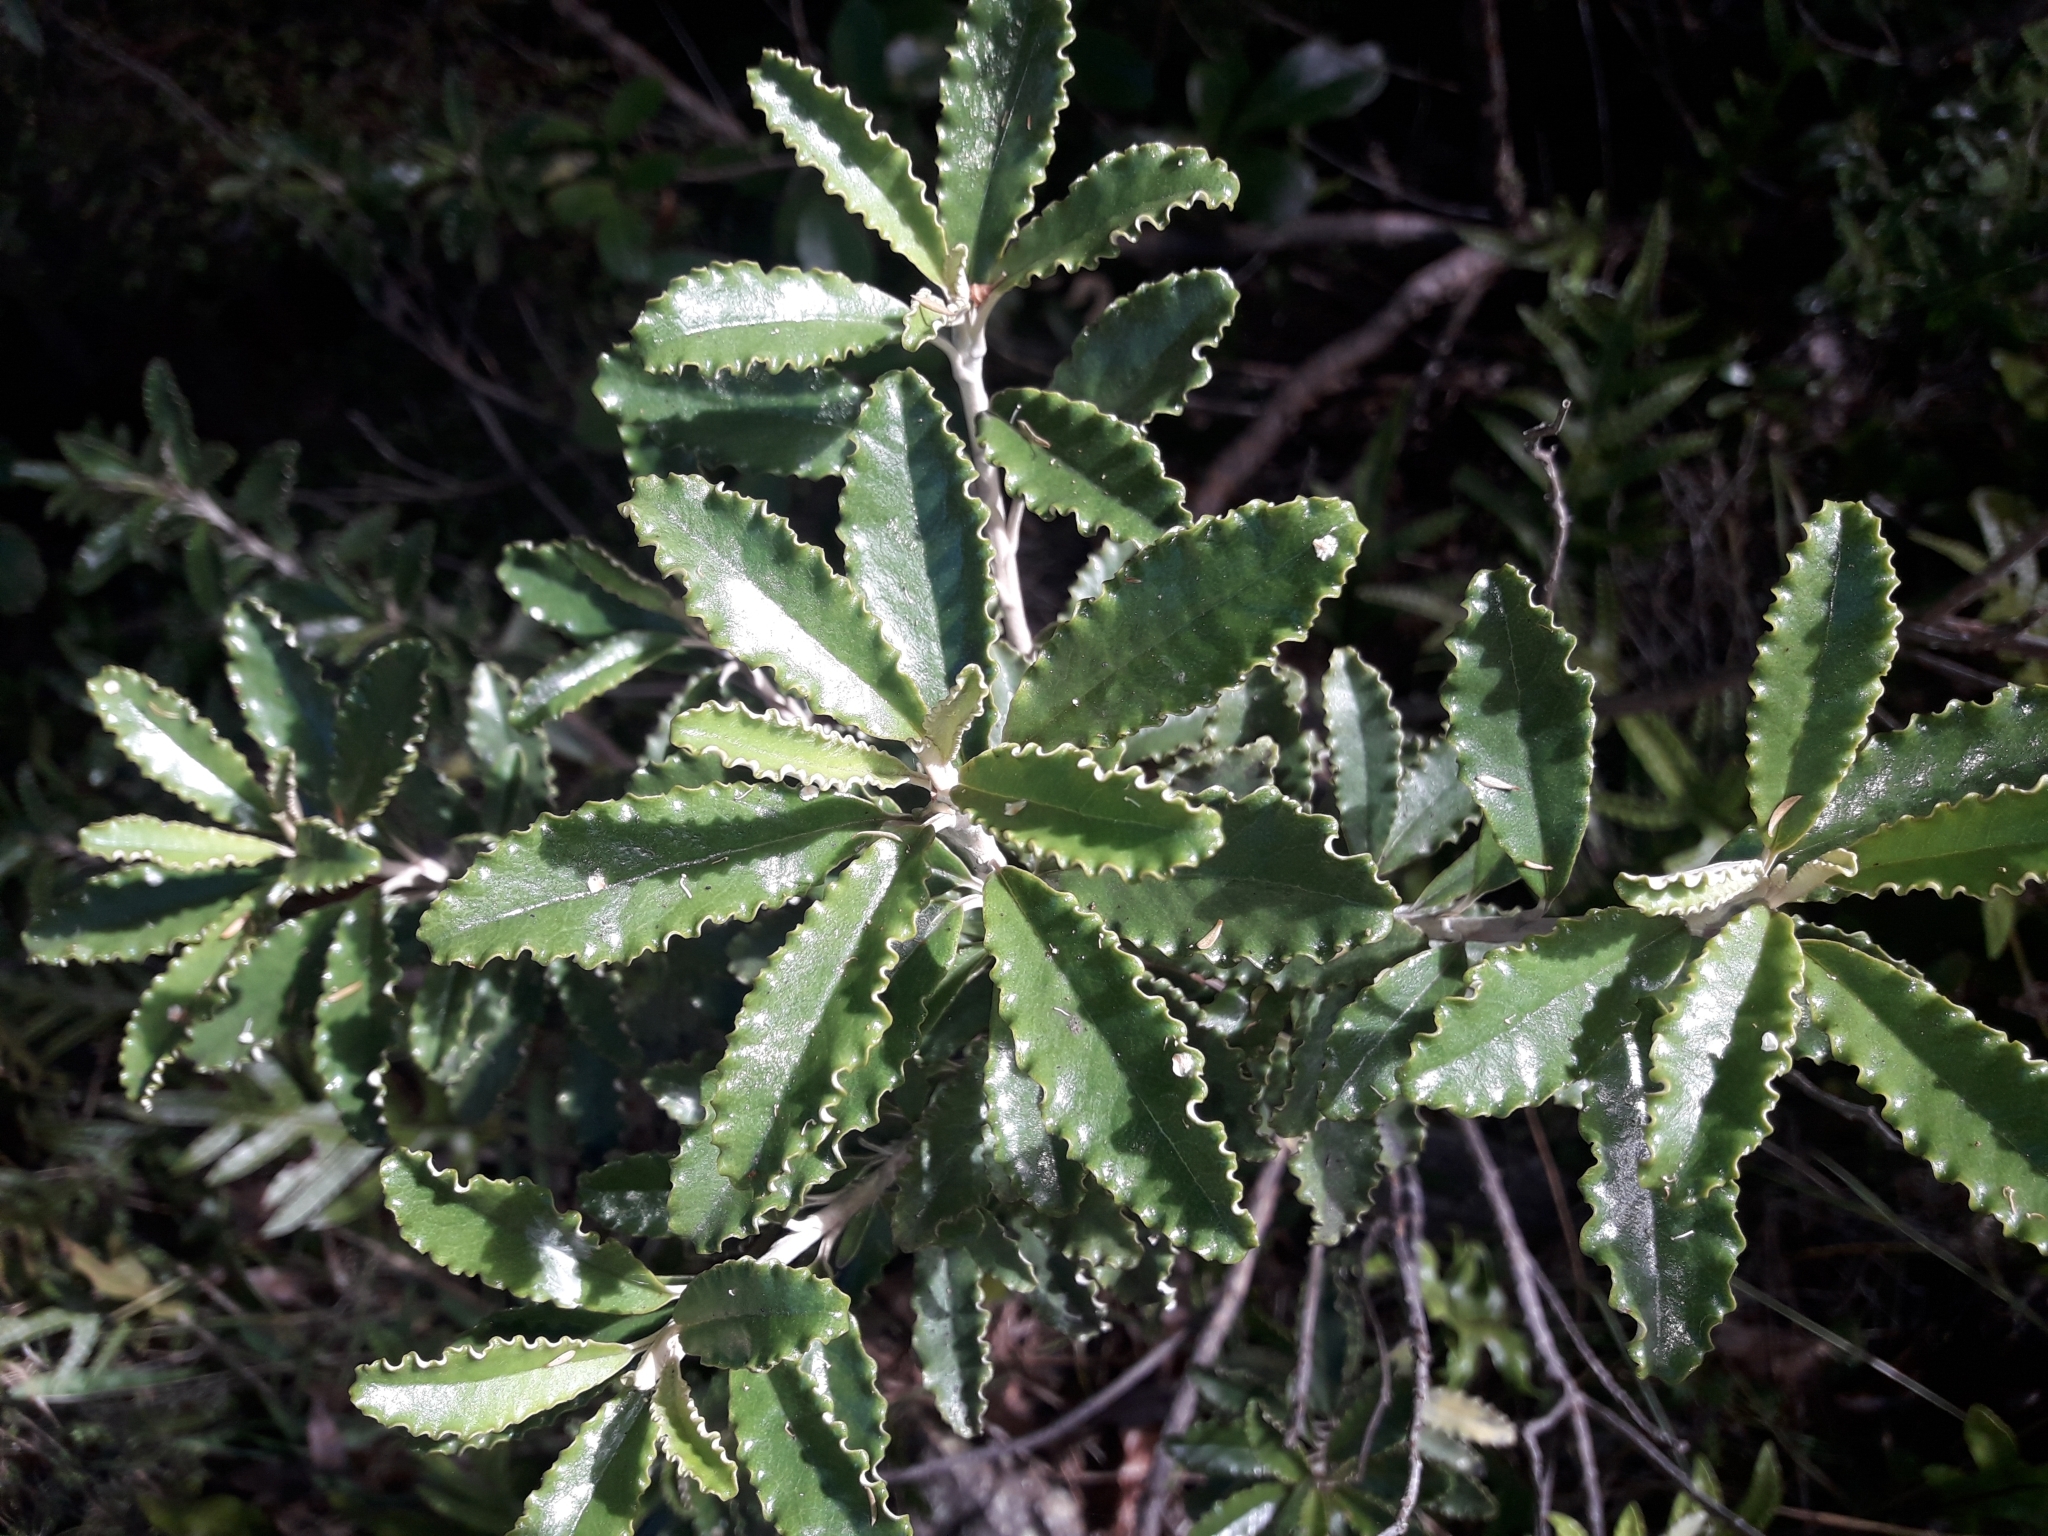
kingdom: Plantae
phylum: Tracheophyta
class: Magnoliopsida
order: Asterales
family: Asteraceae
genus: Brachyglottis
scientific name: Brachyglottis monroi
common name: Monro's ragwort
